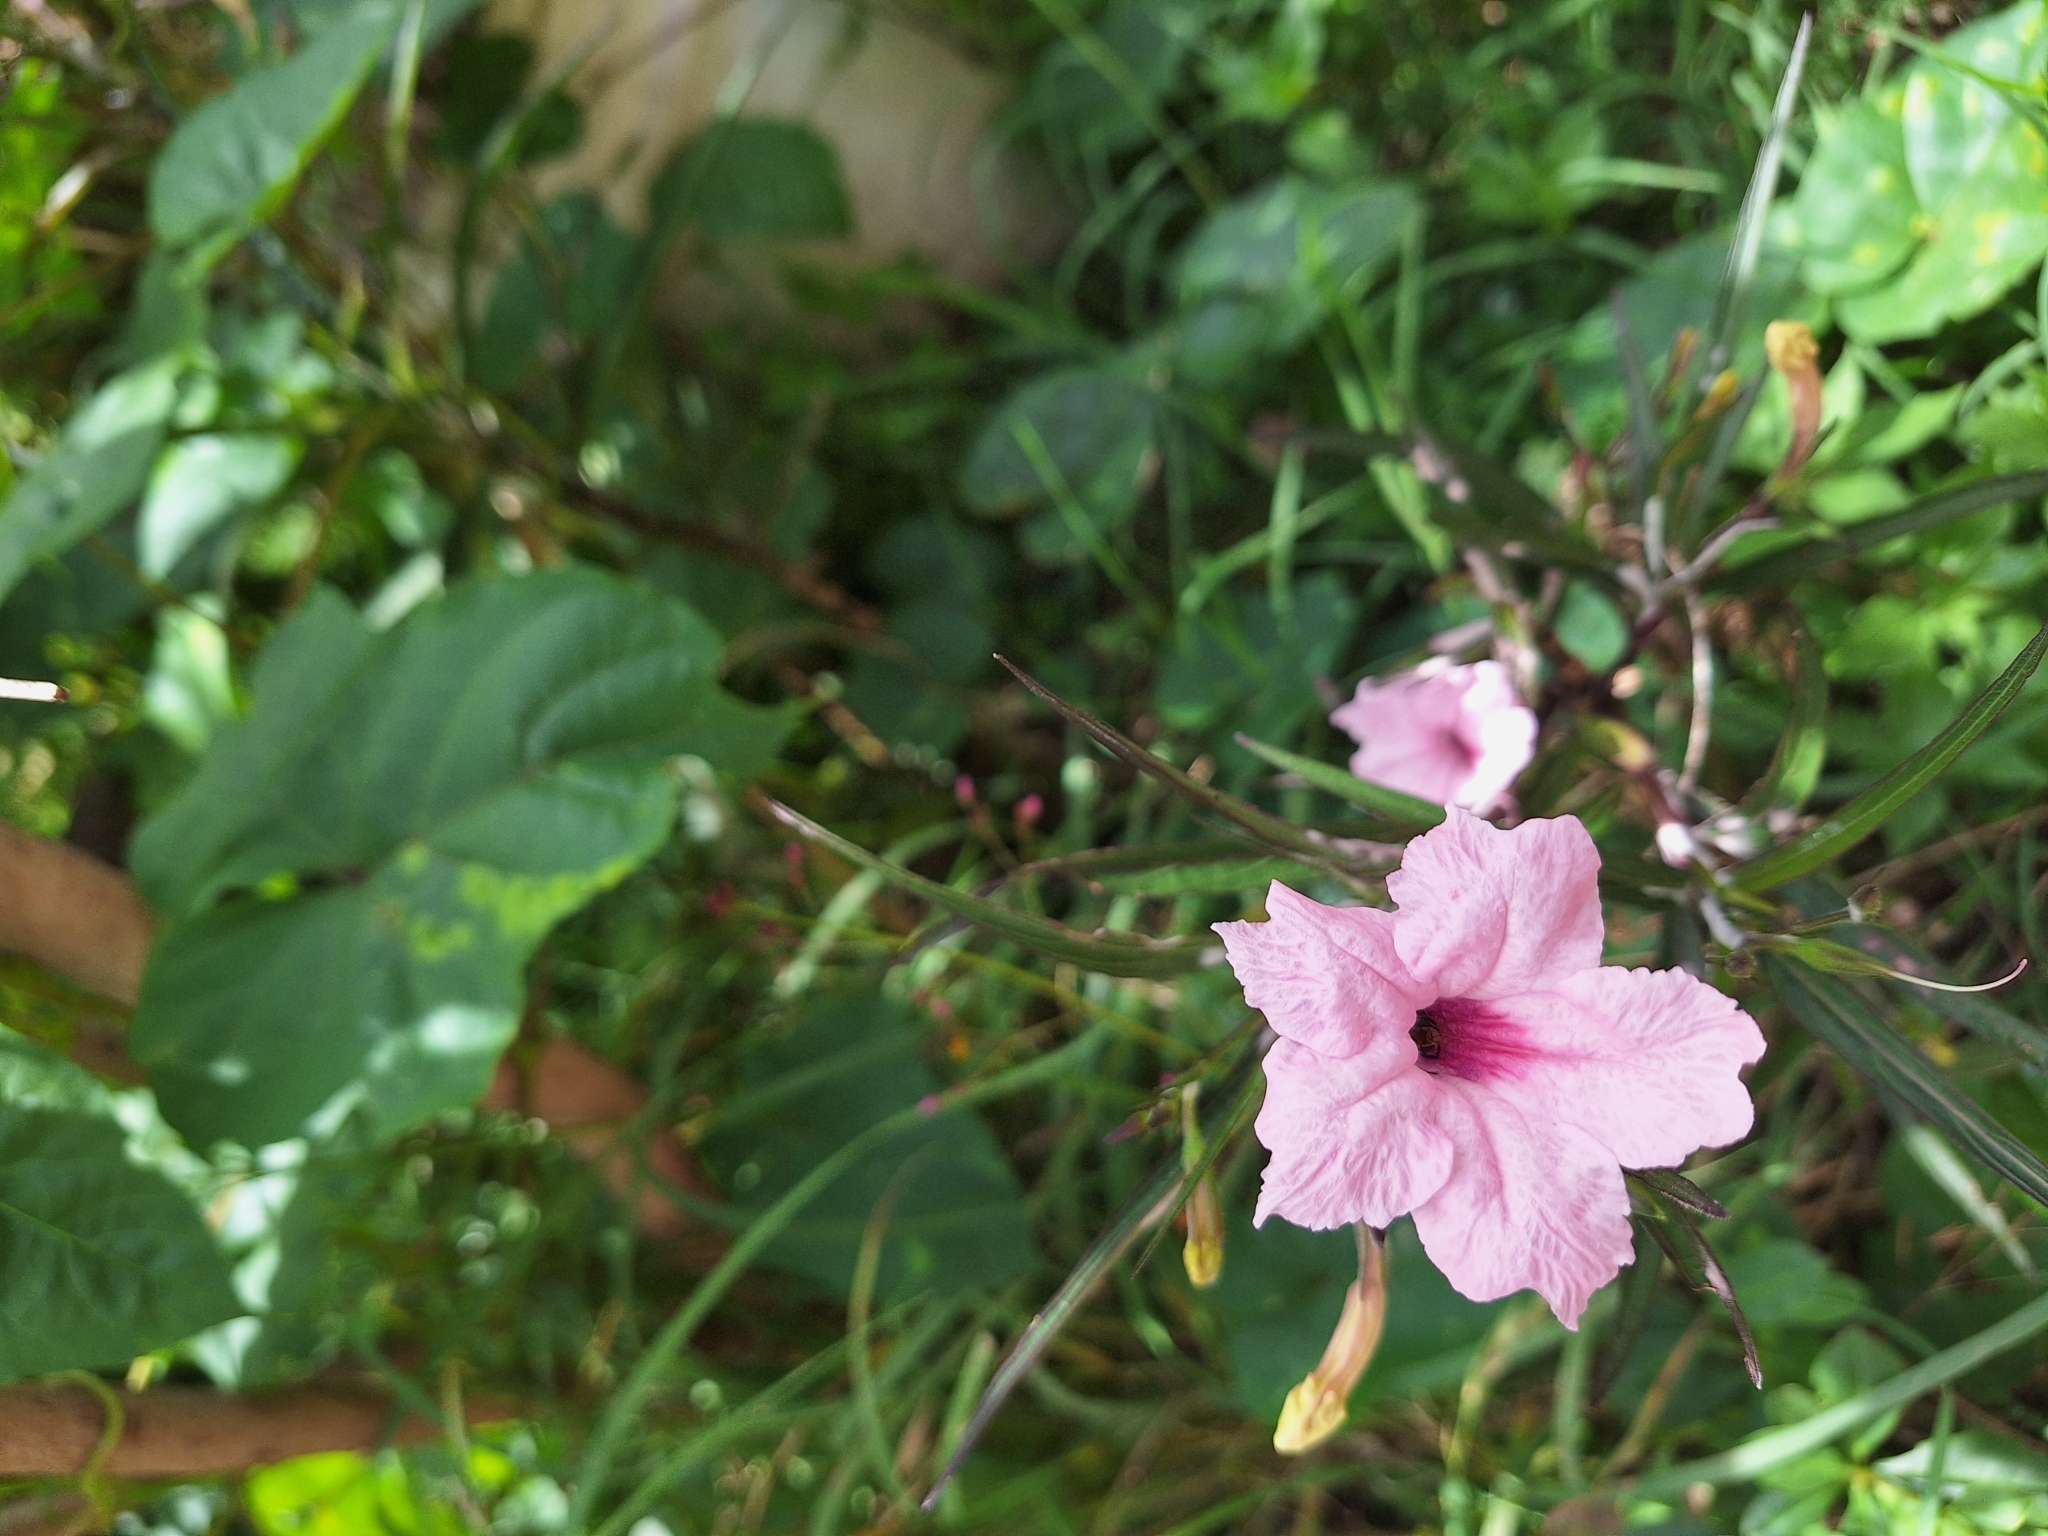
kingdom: Plantae
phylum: Tracheophyta
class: Magnoliopsida
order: Lamiales
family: Acanthaceae
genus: Ruellia
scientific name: Ruellia simplex
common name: Softseed wild petunia
